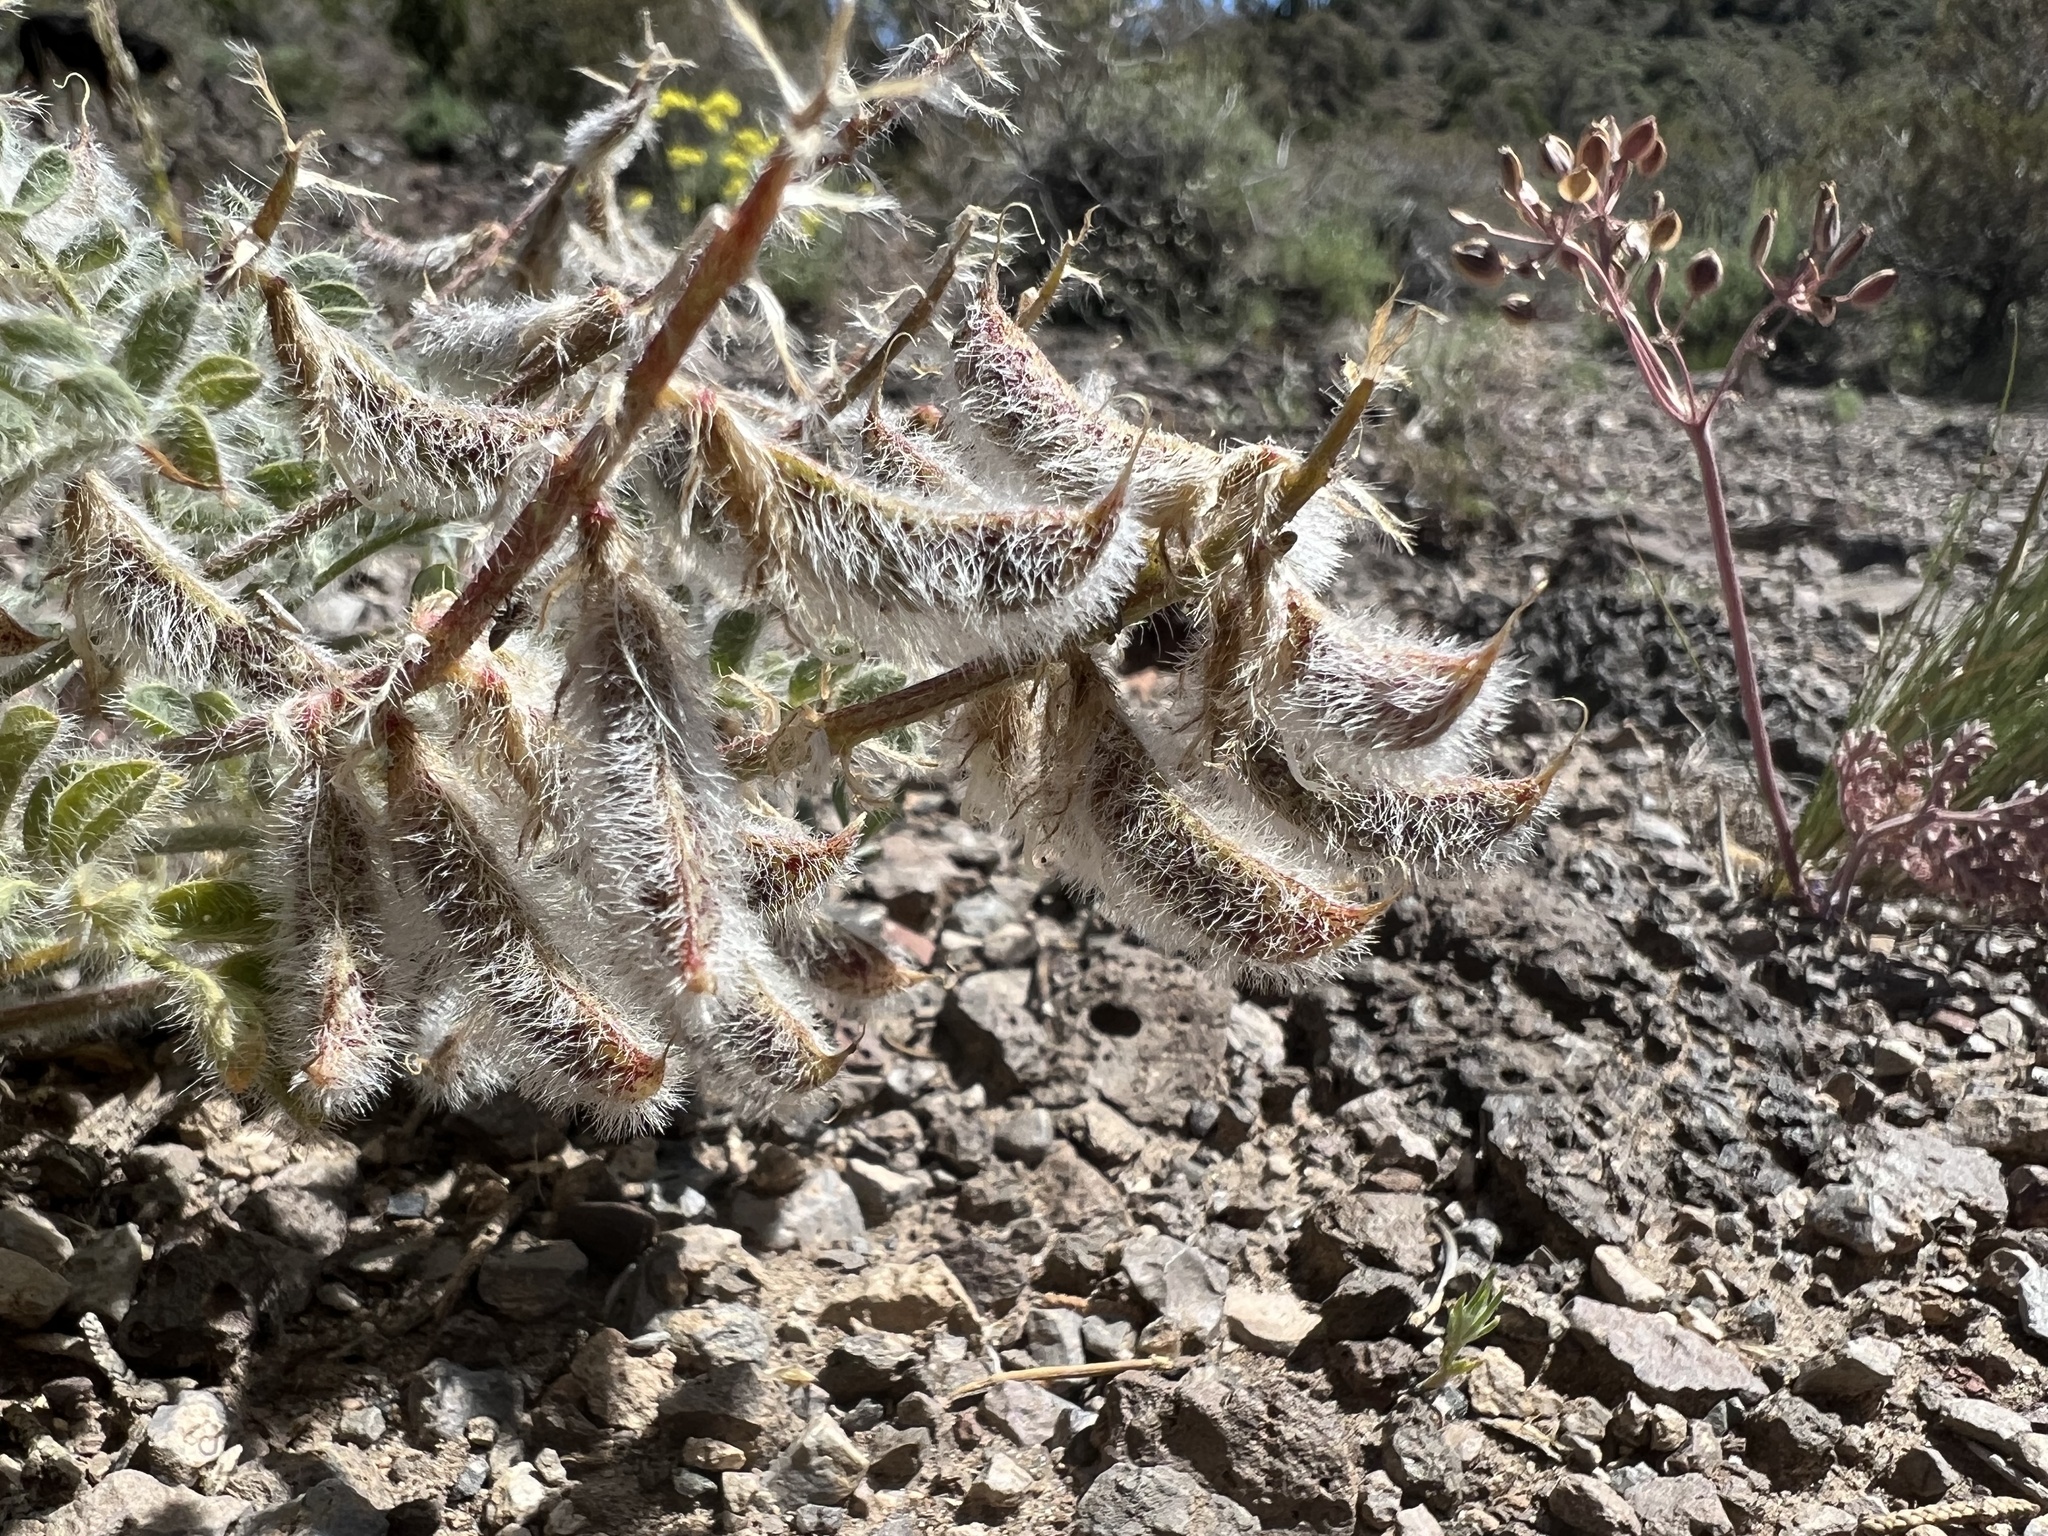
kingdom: Plantae
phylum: Tracheophyta
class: Magnoliopsida
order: Fabales
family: Fabaceae
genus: Astragalus
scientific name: Astragalus malacus
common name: Shaggy milk-vetch
